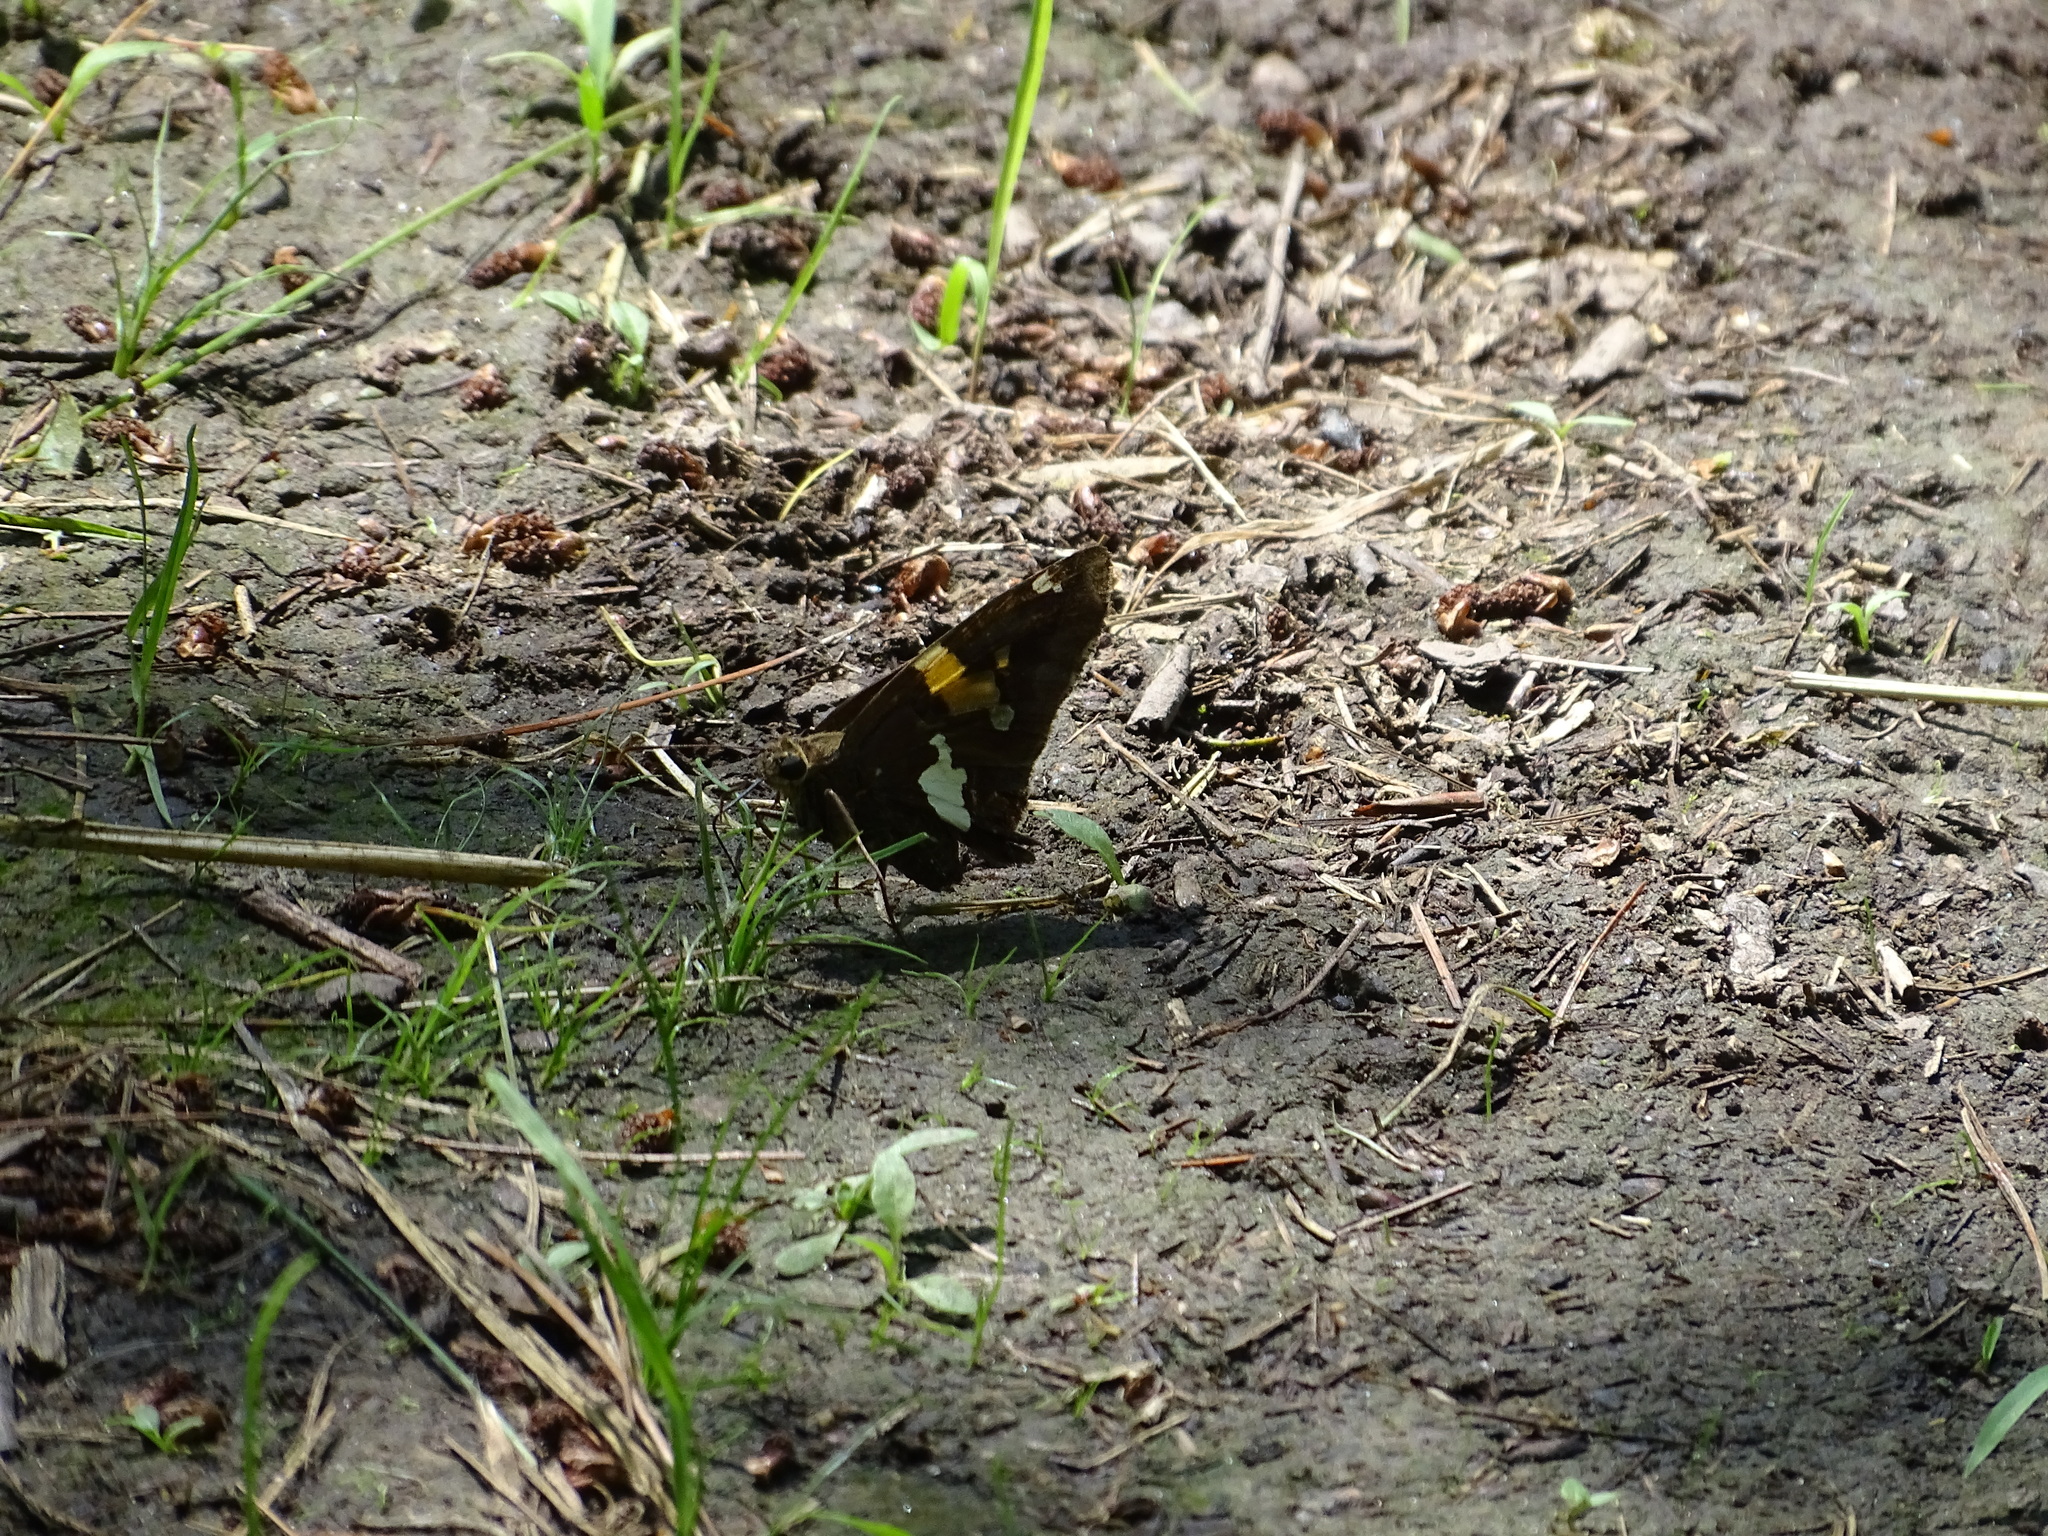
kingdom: Animalia
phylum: Arthropoda
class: Insecta
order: Lepidoptera
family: Hesperiidae
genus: Epargyreus
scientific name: Epargyreus clarus
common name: Silver-spotted skipper
